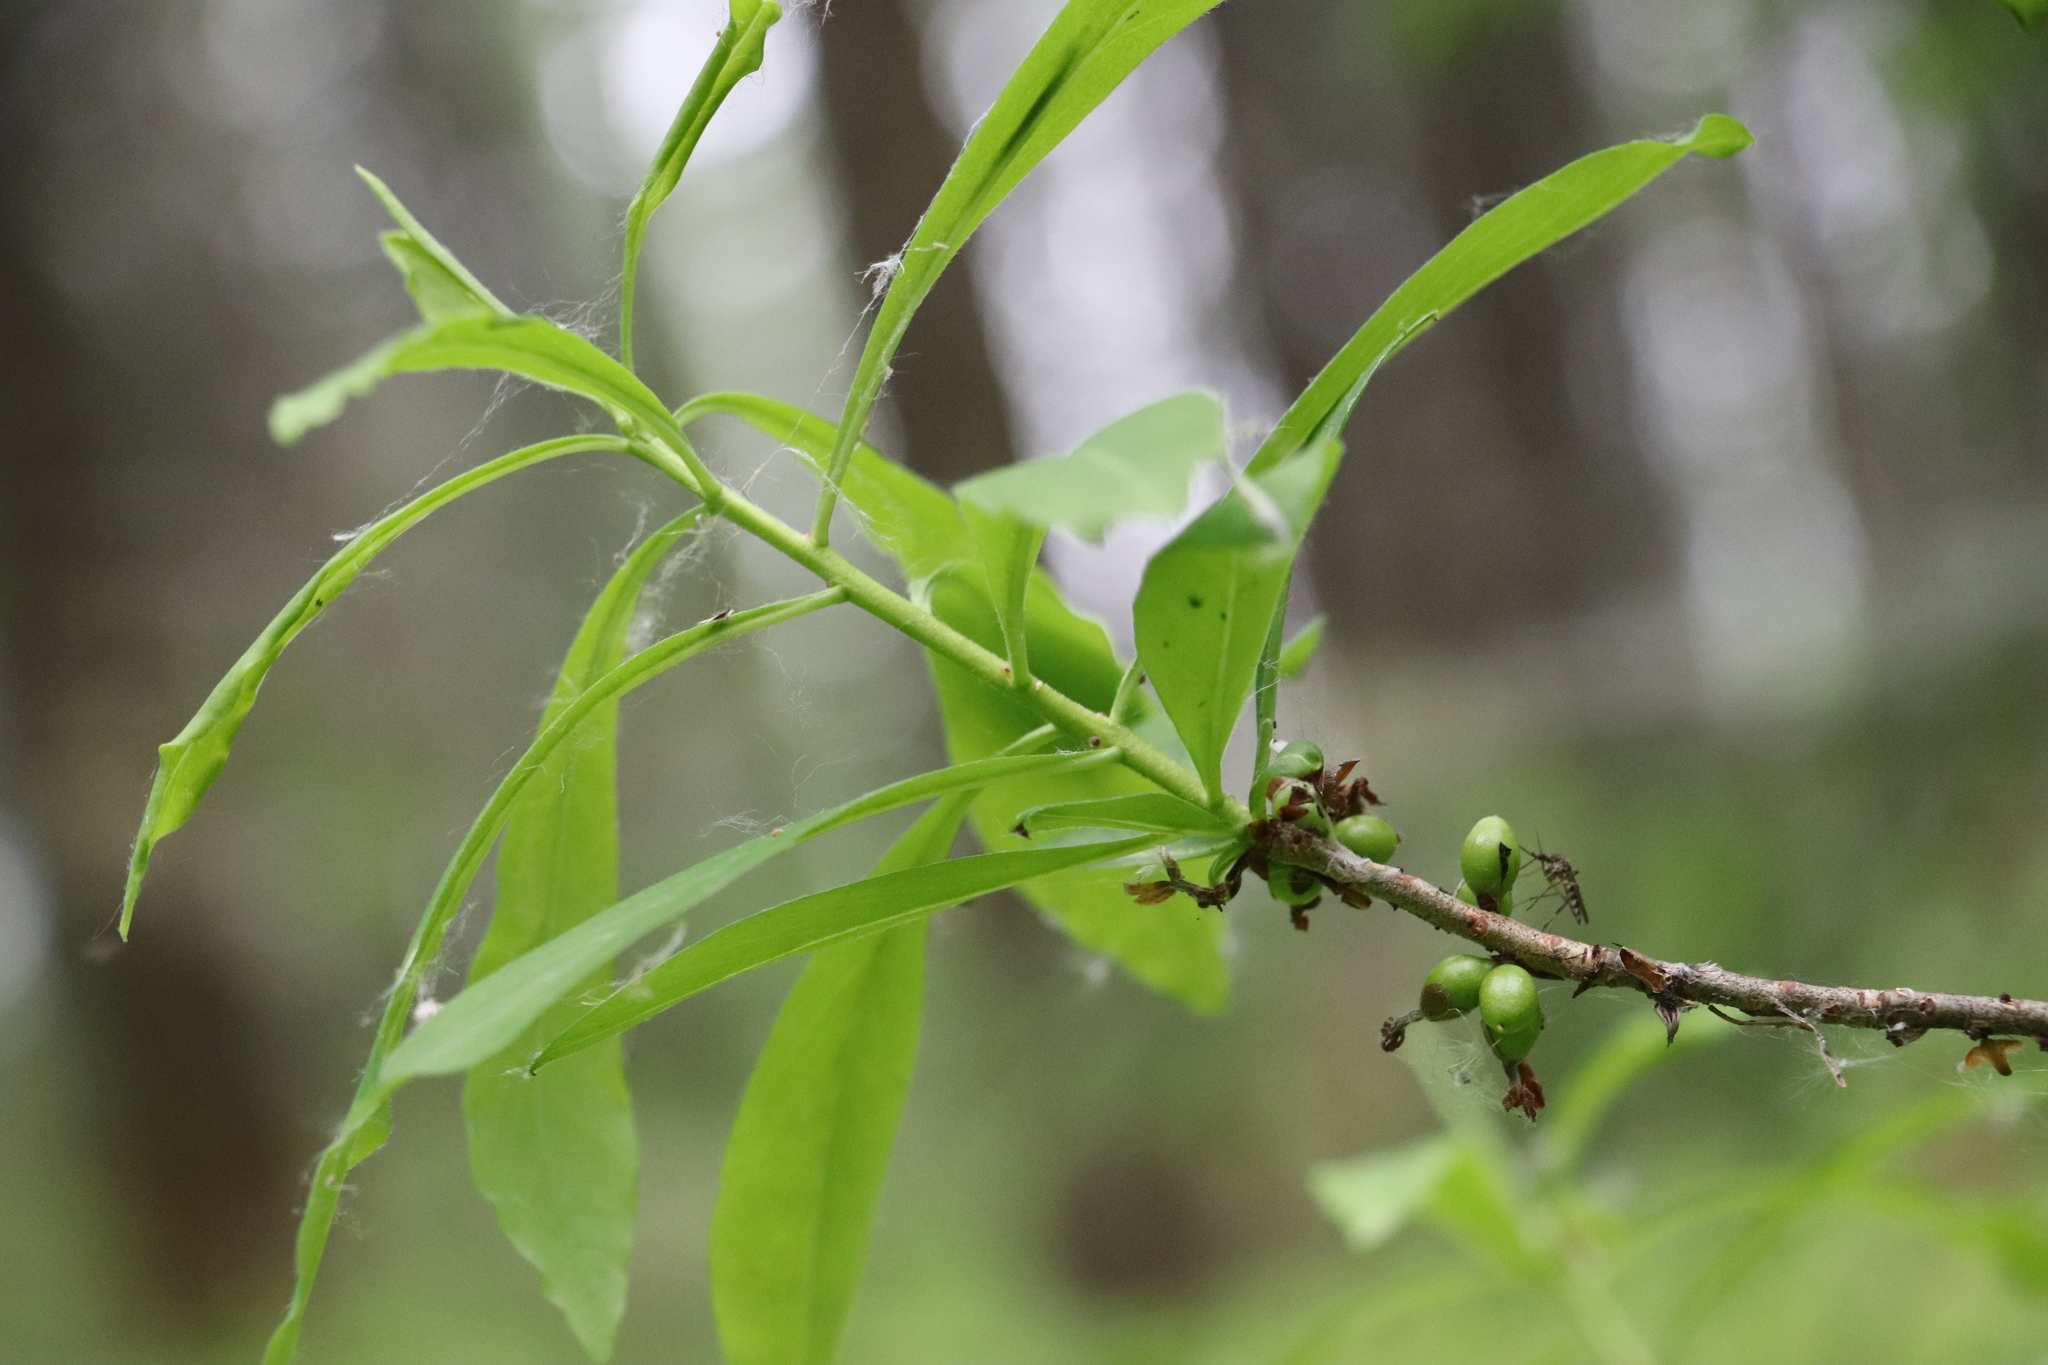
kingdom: Plantae
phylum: Tracheophyta
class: Magnoliopsida
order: Malvales
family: Thymelaeaceae
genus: Daphne
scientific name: Daphne mezereum
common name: Mezereon
